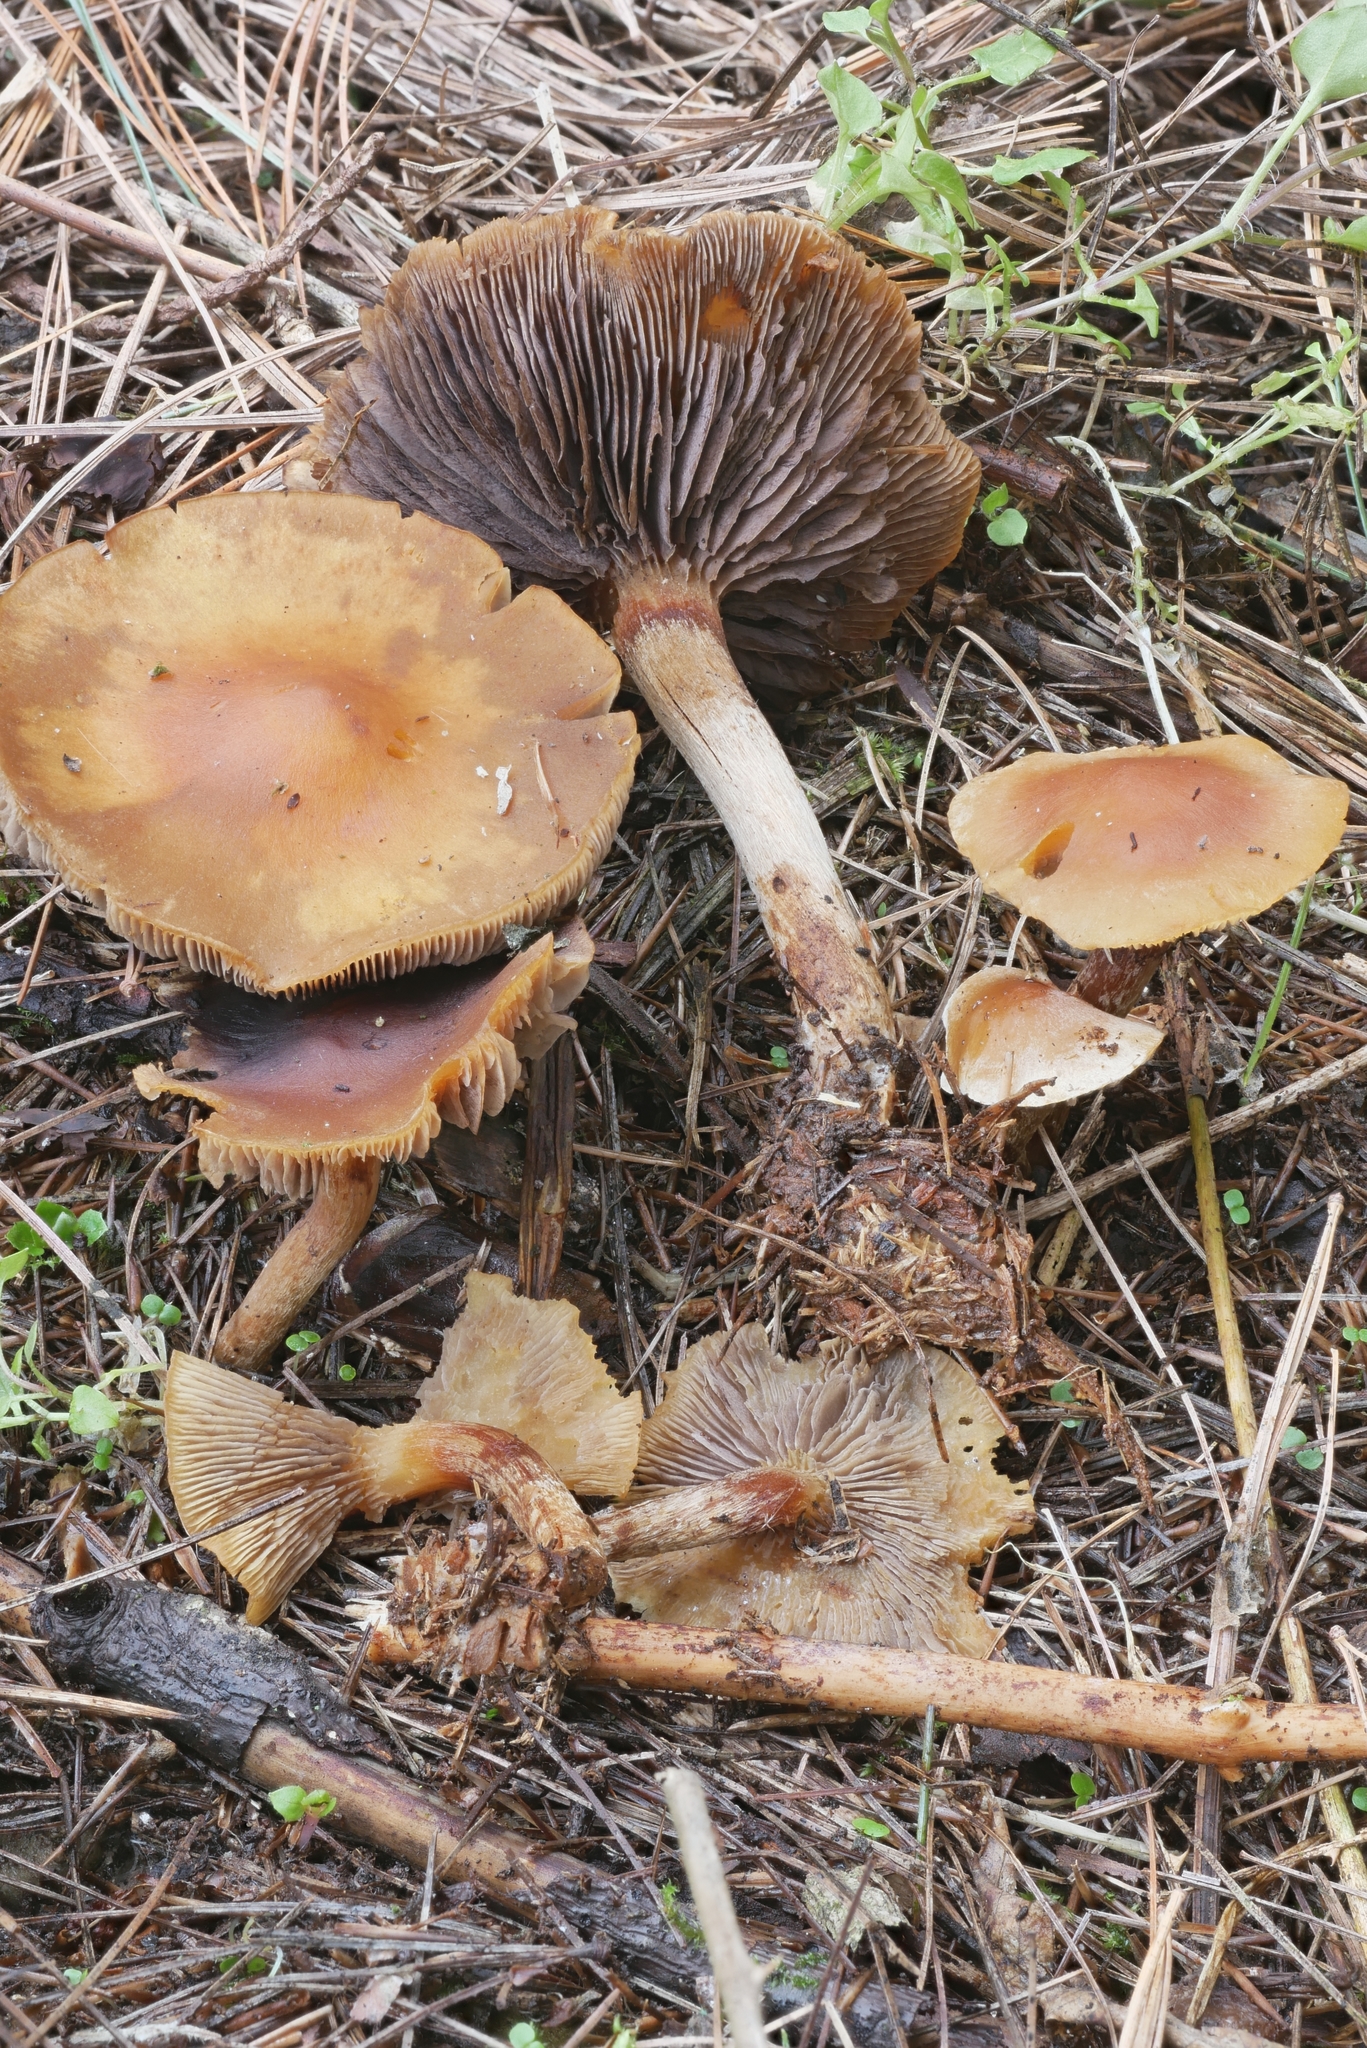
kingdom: Fungi
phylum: Basidiomycota
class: Agaricomycetes
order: Agaricales
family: Strophariaceae
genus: Hypholoma
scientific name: Hypholoma capnoides
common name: Conifer tuft
